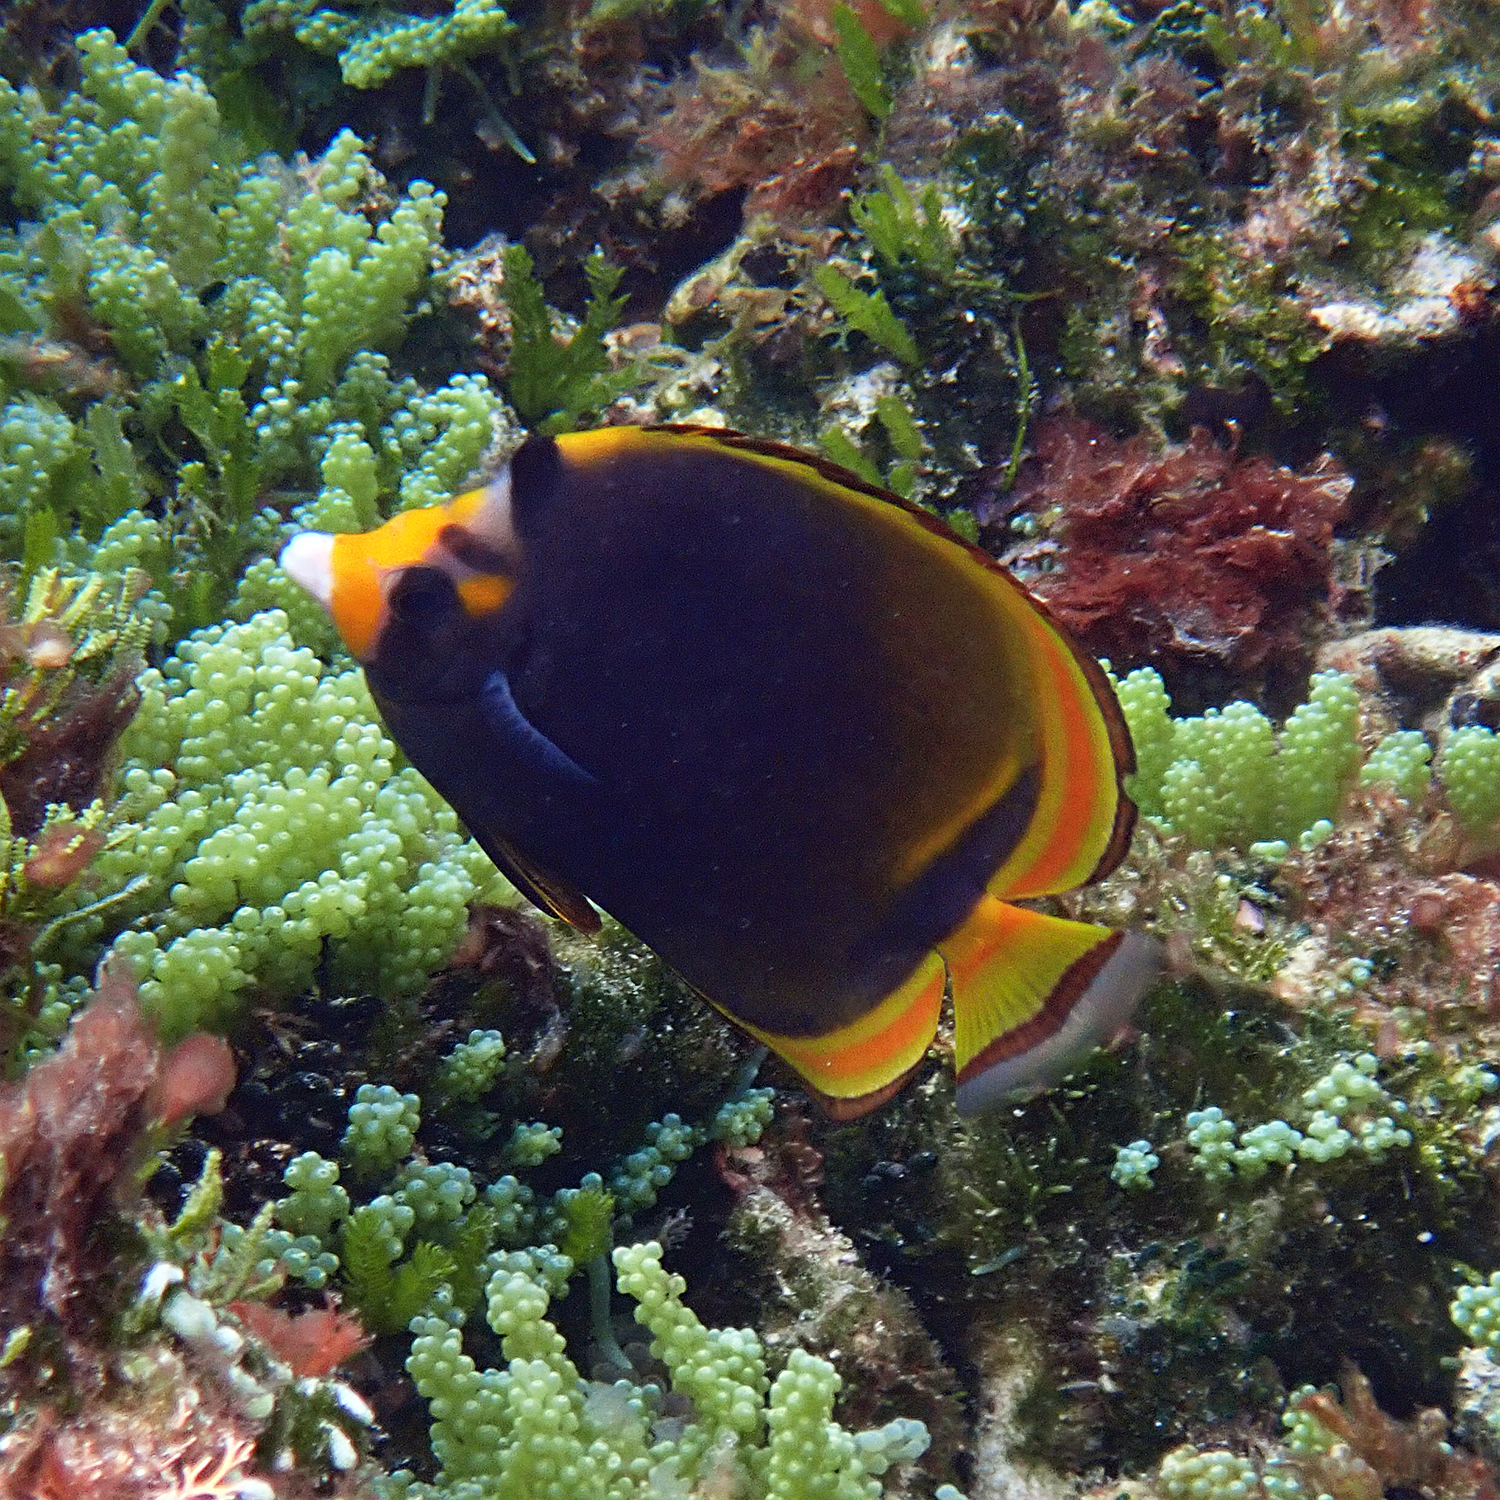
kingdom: Animalia
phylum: Chordata
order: Perciformes
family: Chaetodontidae
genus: Chaetodon
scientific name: Chaetodon flavirostris
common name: Black butterflyfish
